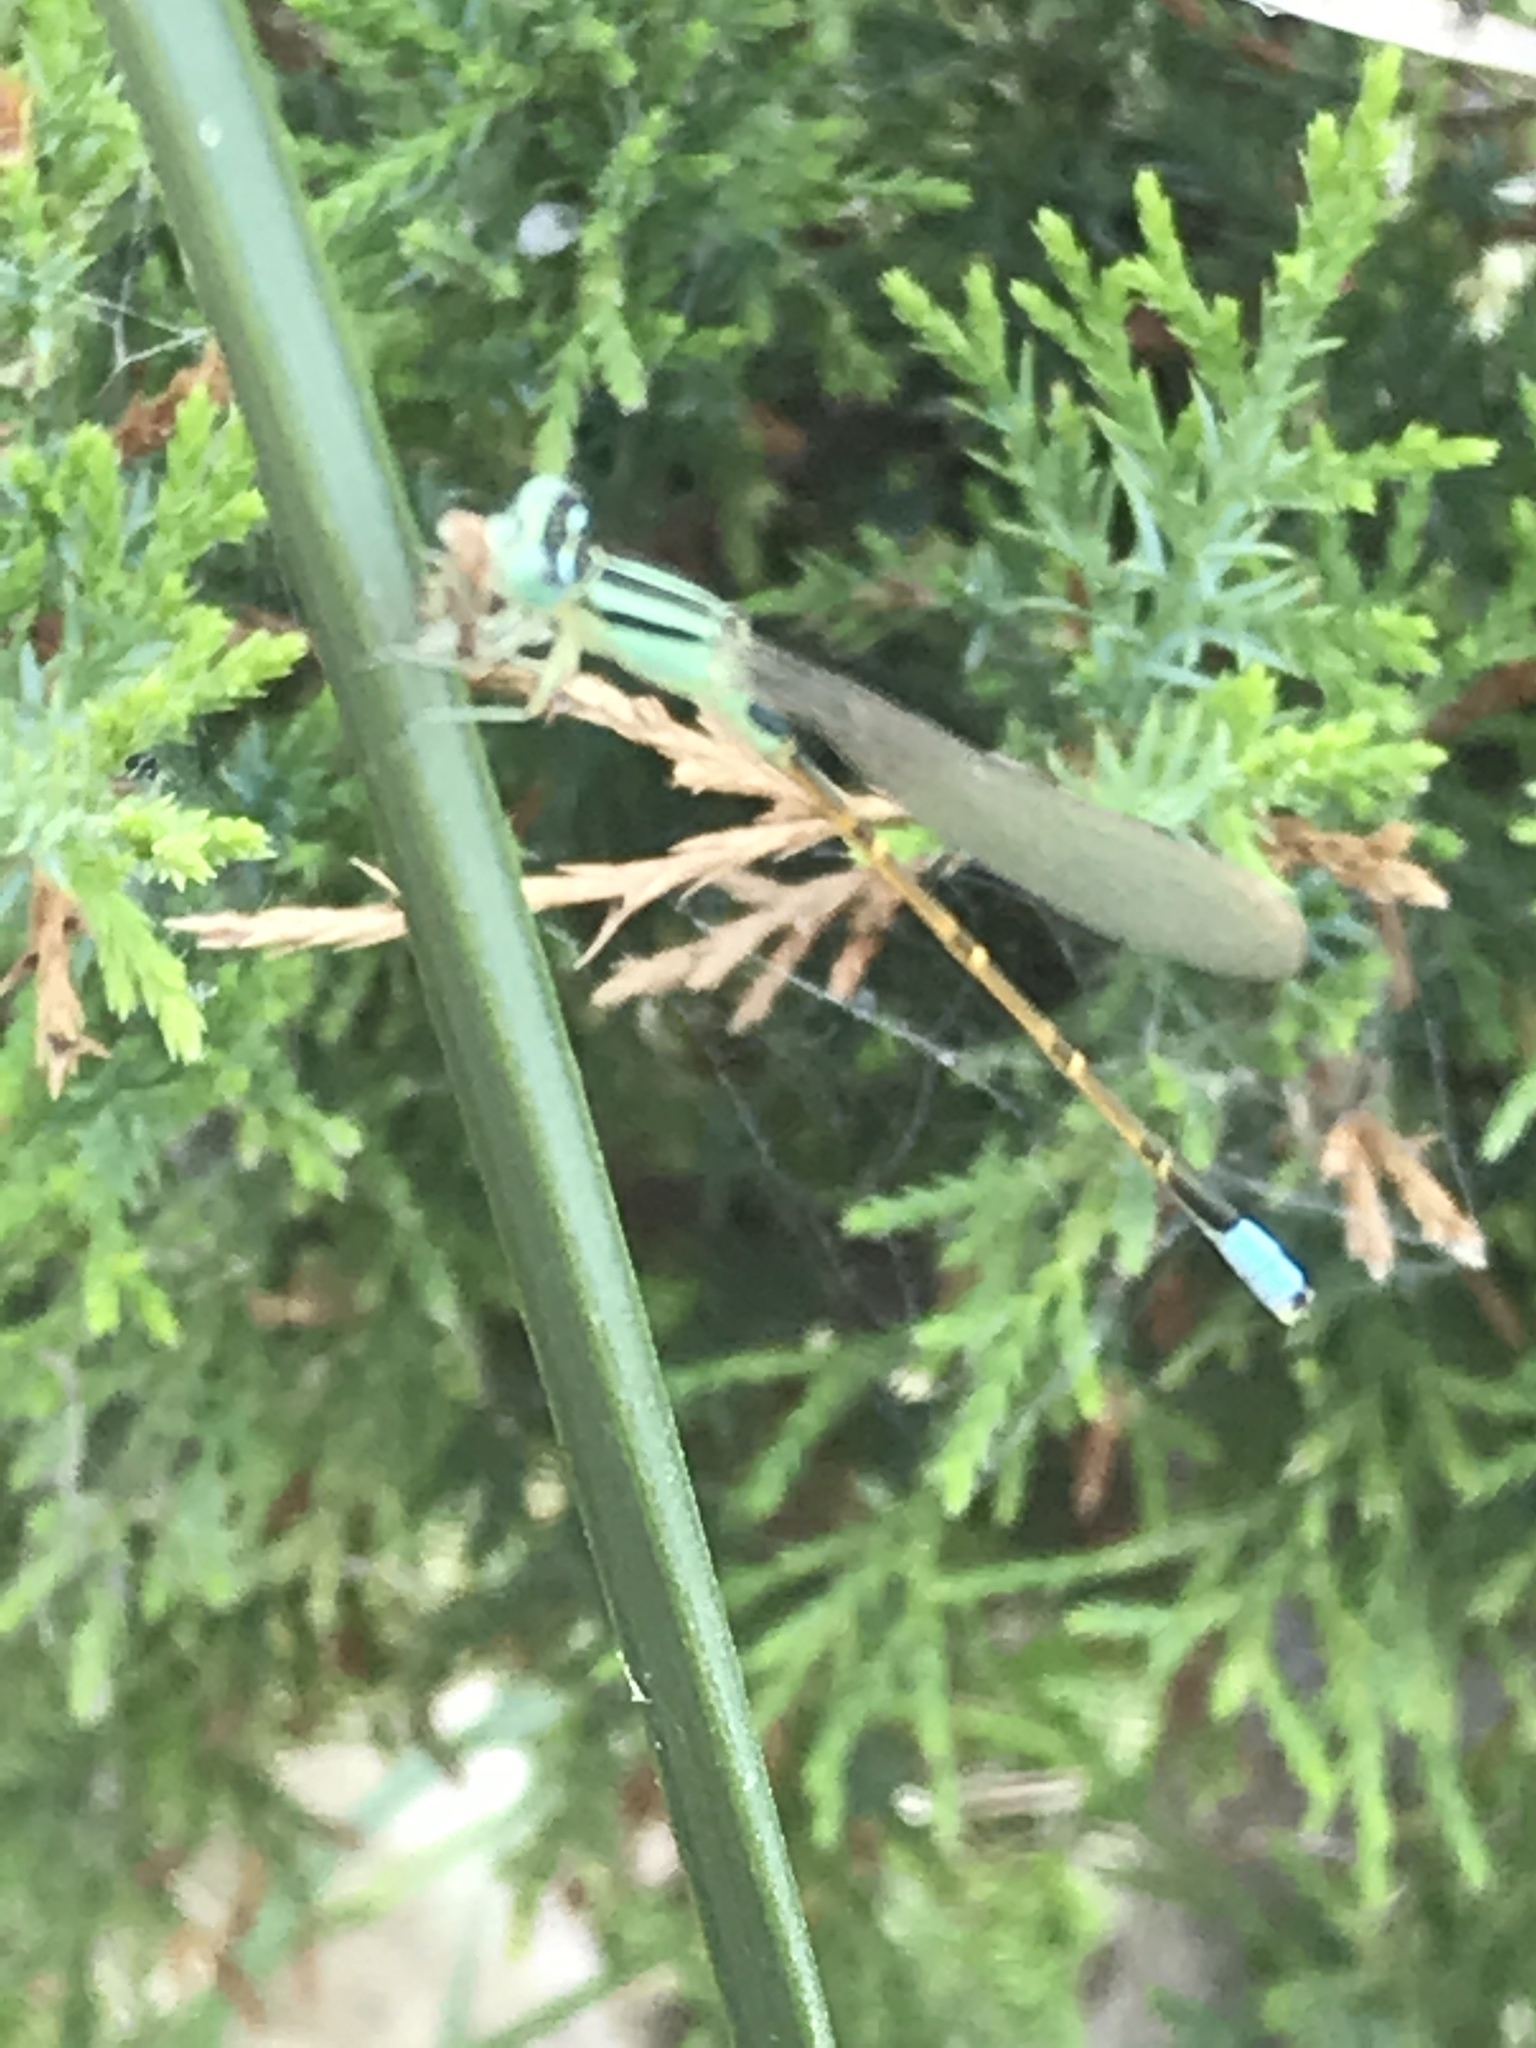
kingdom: Animalia
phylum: Arthropoda
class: Insecta
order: Odonata
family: Coenagrionidae
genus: Ischnura
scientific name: Ischnura barberi
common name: Desert forktail
